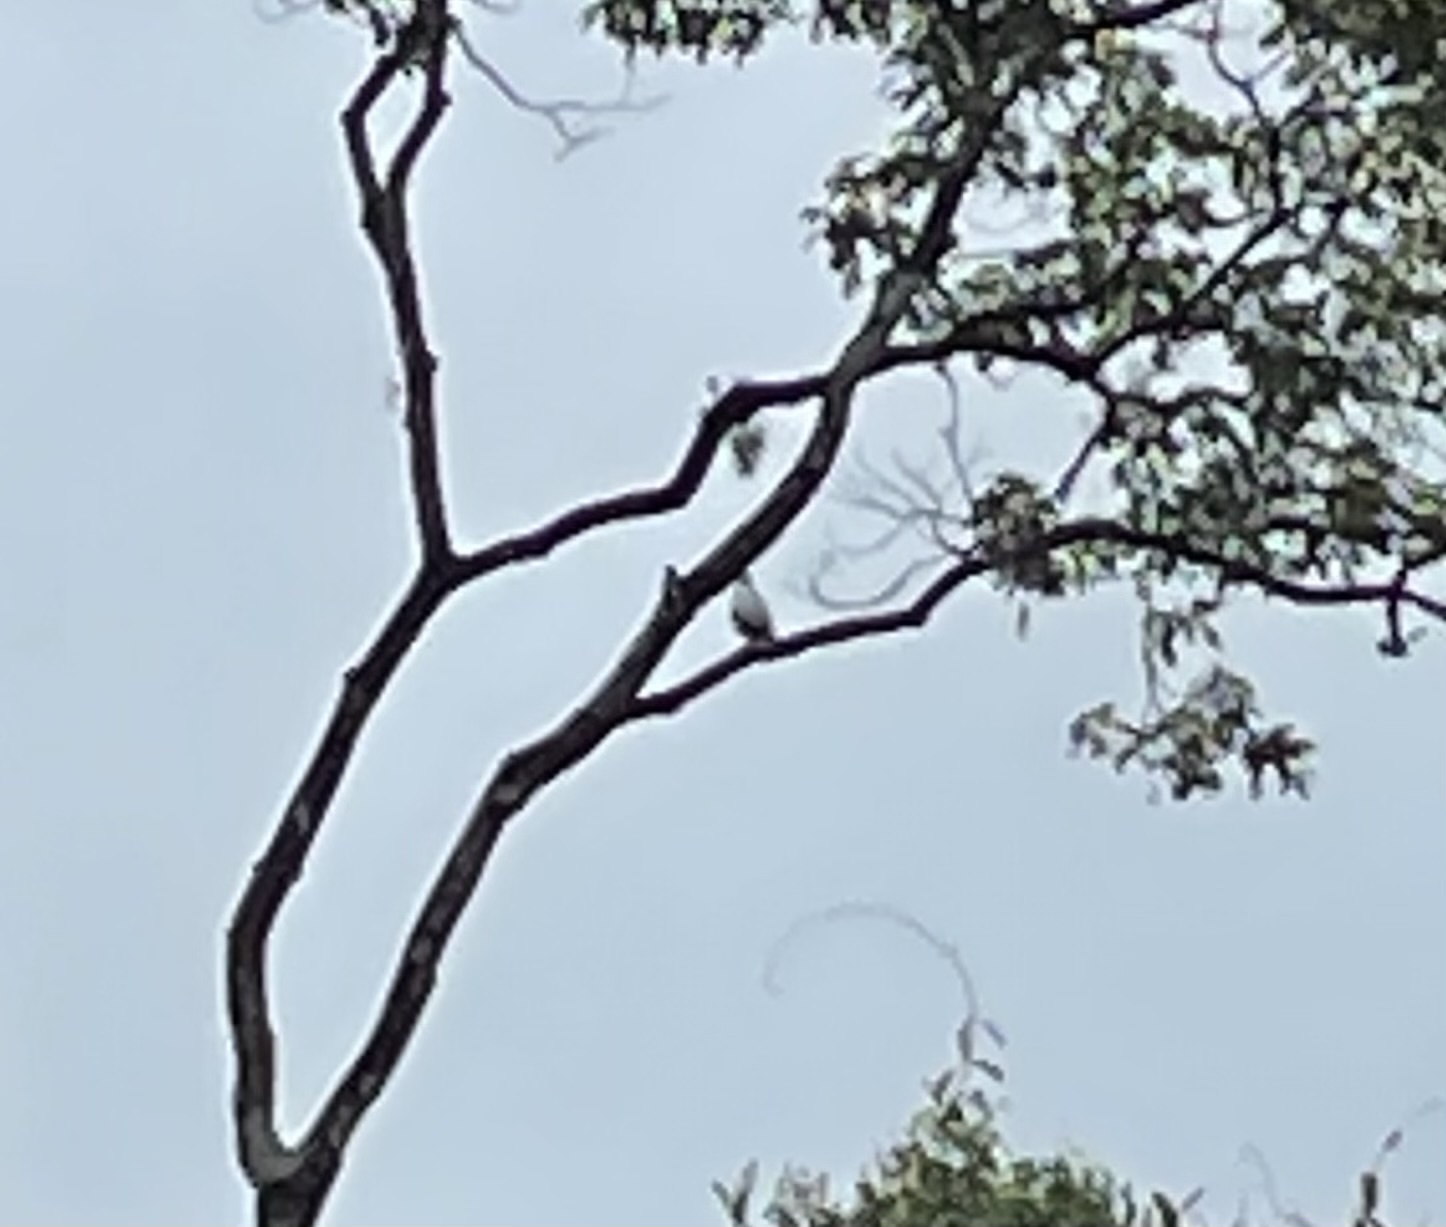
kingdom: Animalia
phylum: Chordata
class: Aves
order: Accipitriformes
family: Accipitridae
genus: Leucopternis
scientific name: Leucopternis albicollis
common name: White hawk
